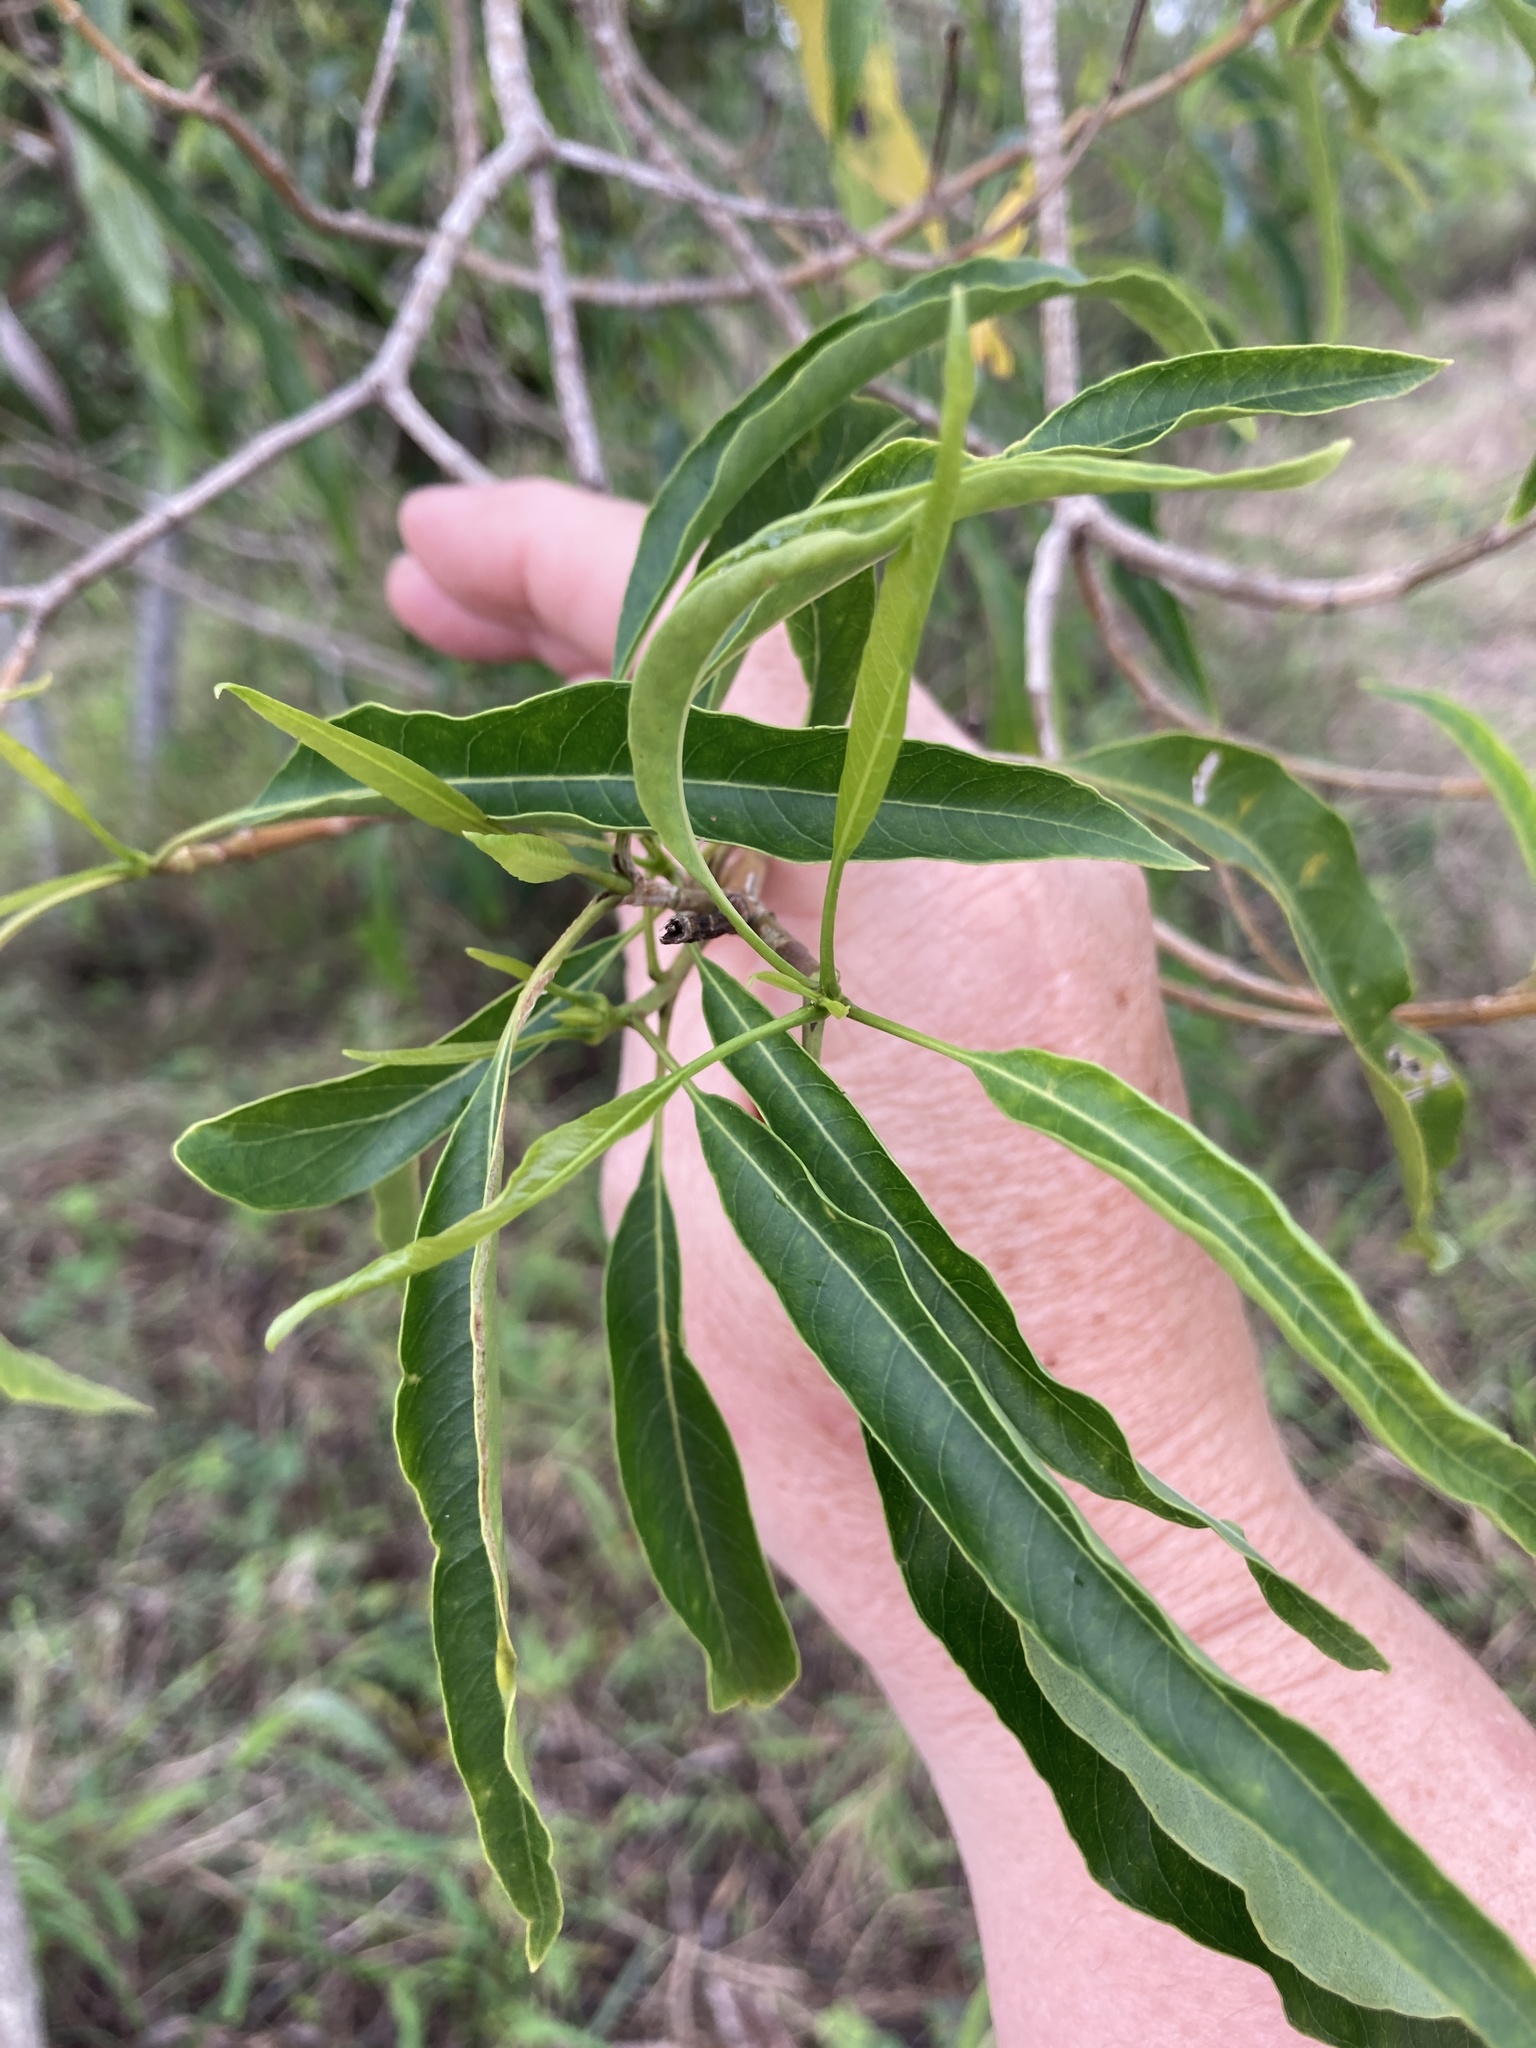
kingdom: Plantae
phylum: Tracheophyta
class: Magnoliopsida
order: Gentianales
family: Apocynaceae
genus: Alstonia
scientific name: Alstonia mollis
